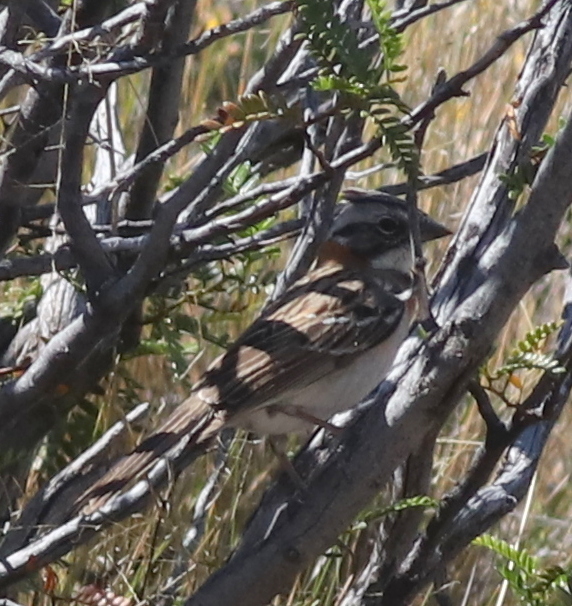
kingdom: Animalia
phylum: Chordata
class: Aves
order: Passeriformes
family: Passerellidae
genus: Zonotrichia
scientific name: Zonotrichia capensis
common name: Rufous-collared sparrow
